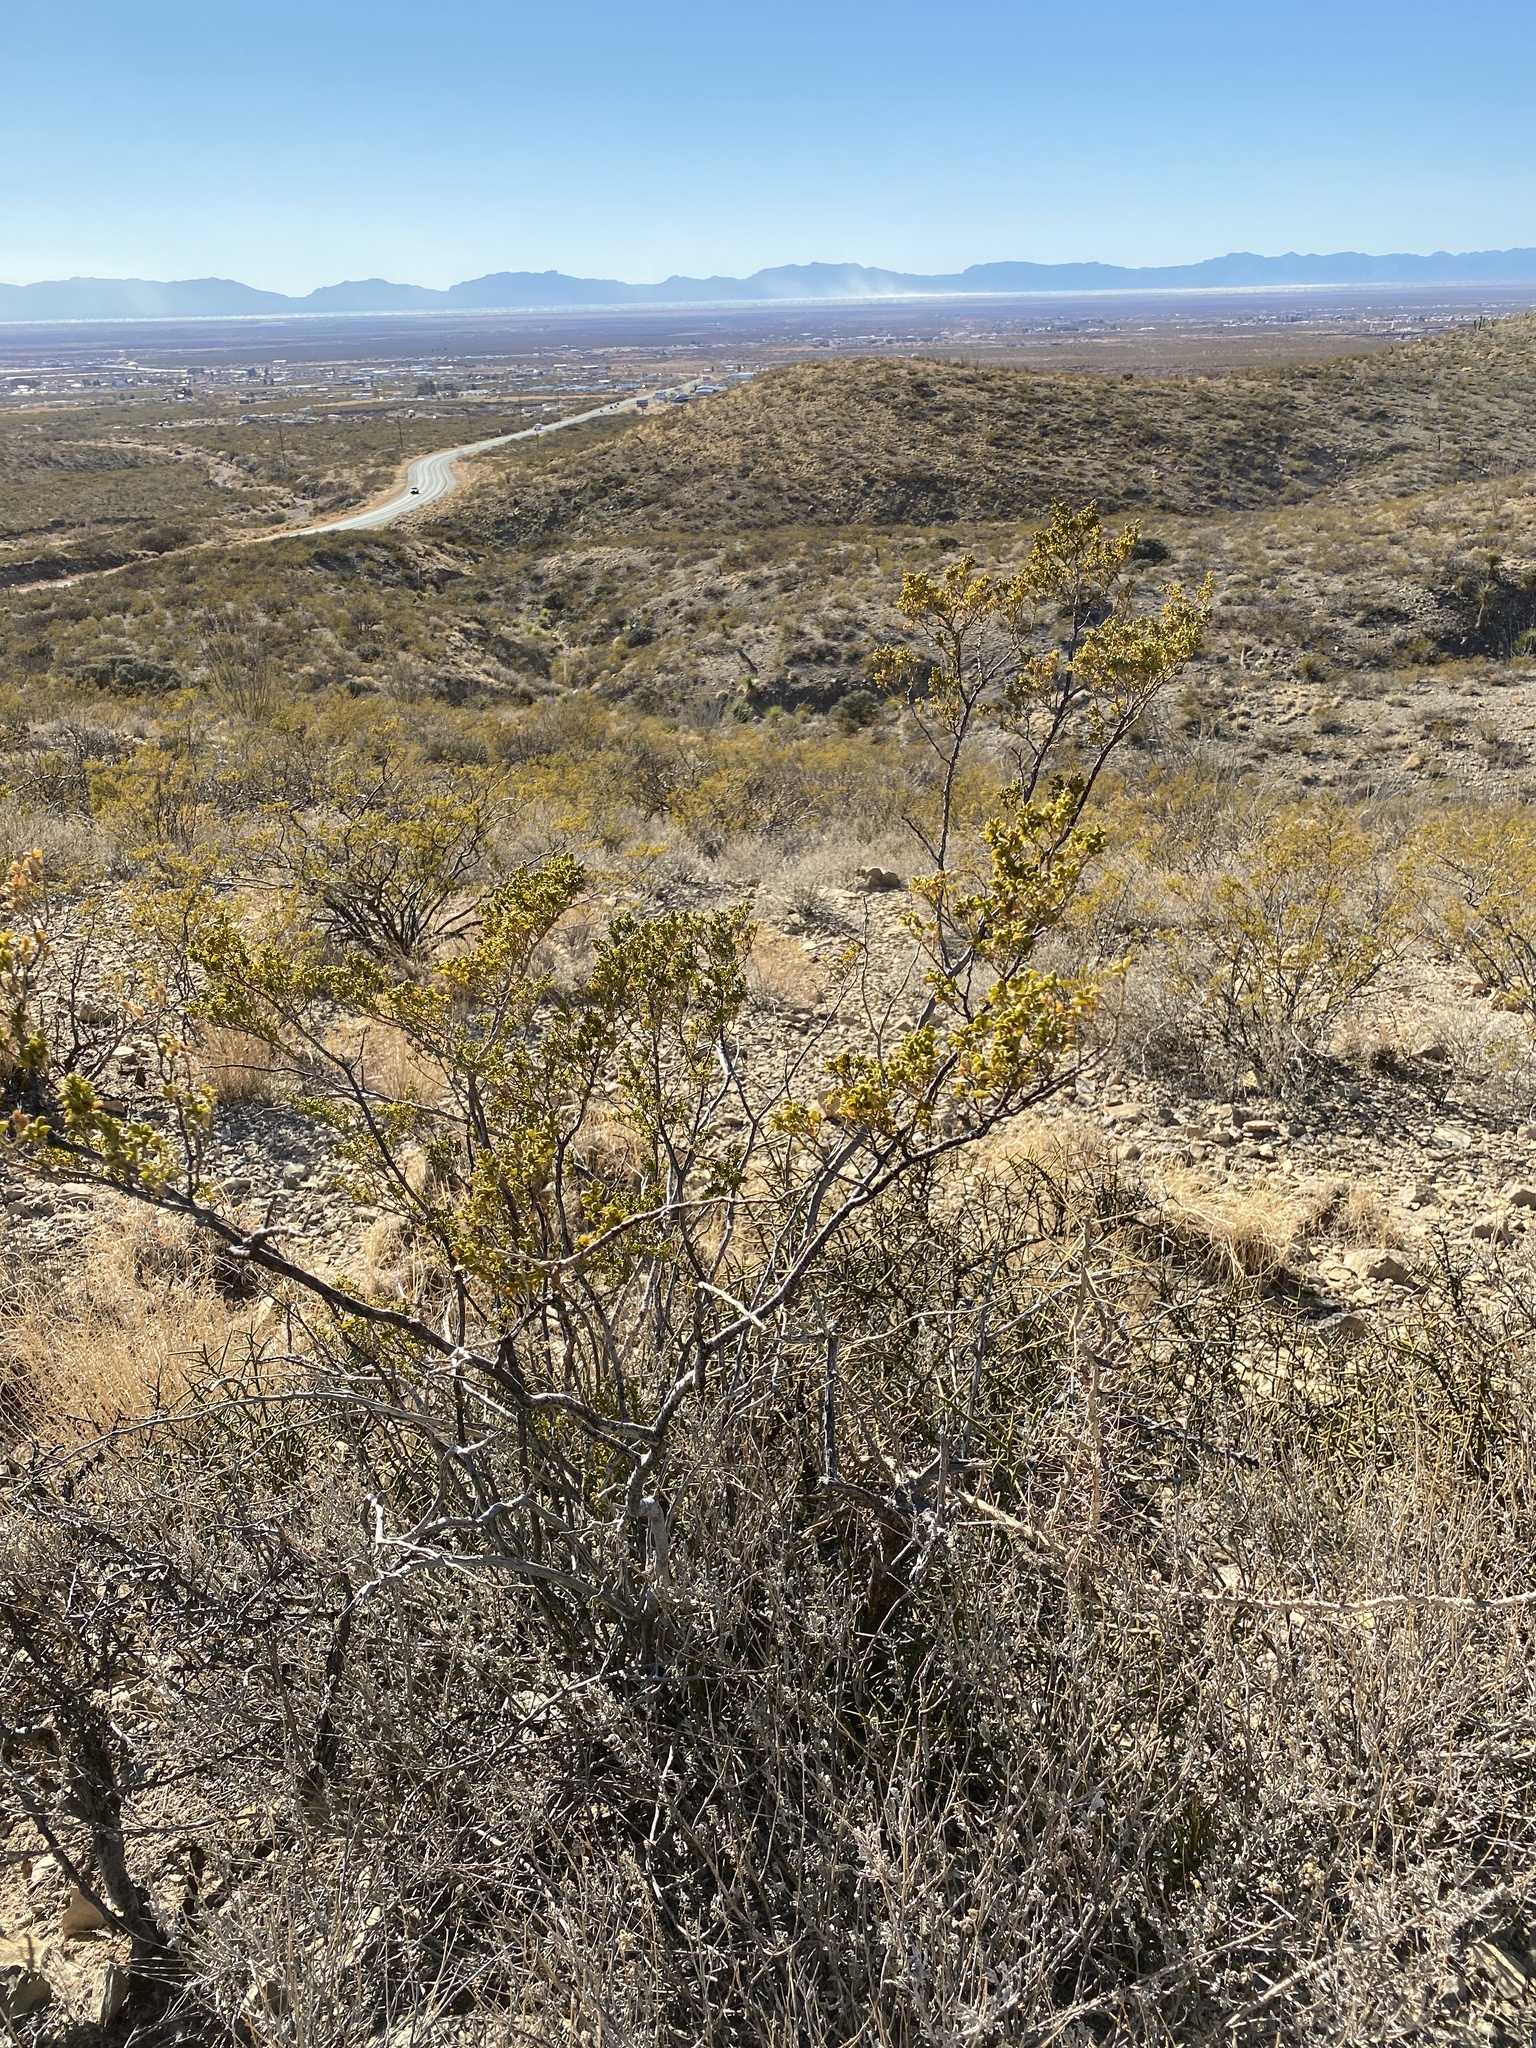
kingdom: Plantae
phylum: Tracheophyta
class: Magnoliopsida
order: Zygophyllales
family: Zygophyllaceae
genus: Larrea
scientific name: Larrea tridentata
